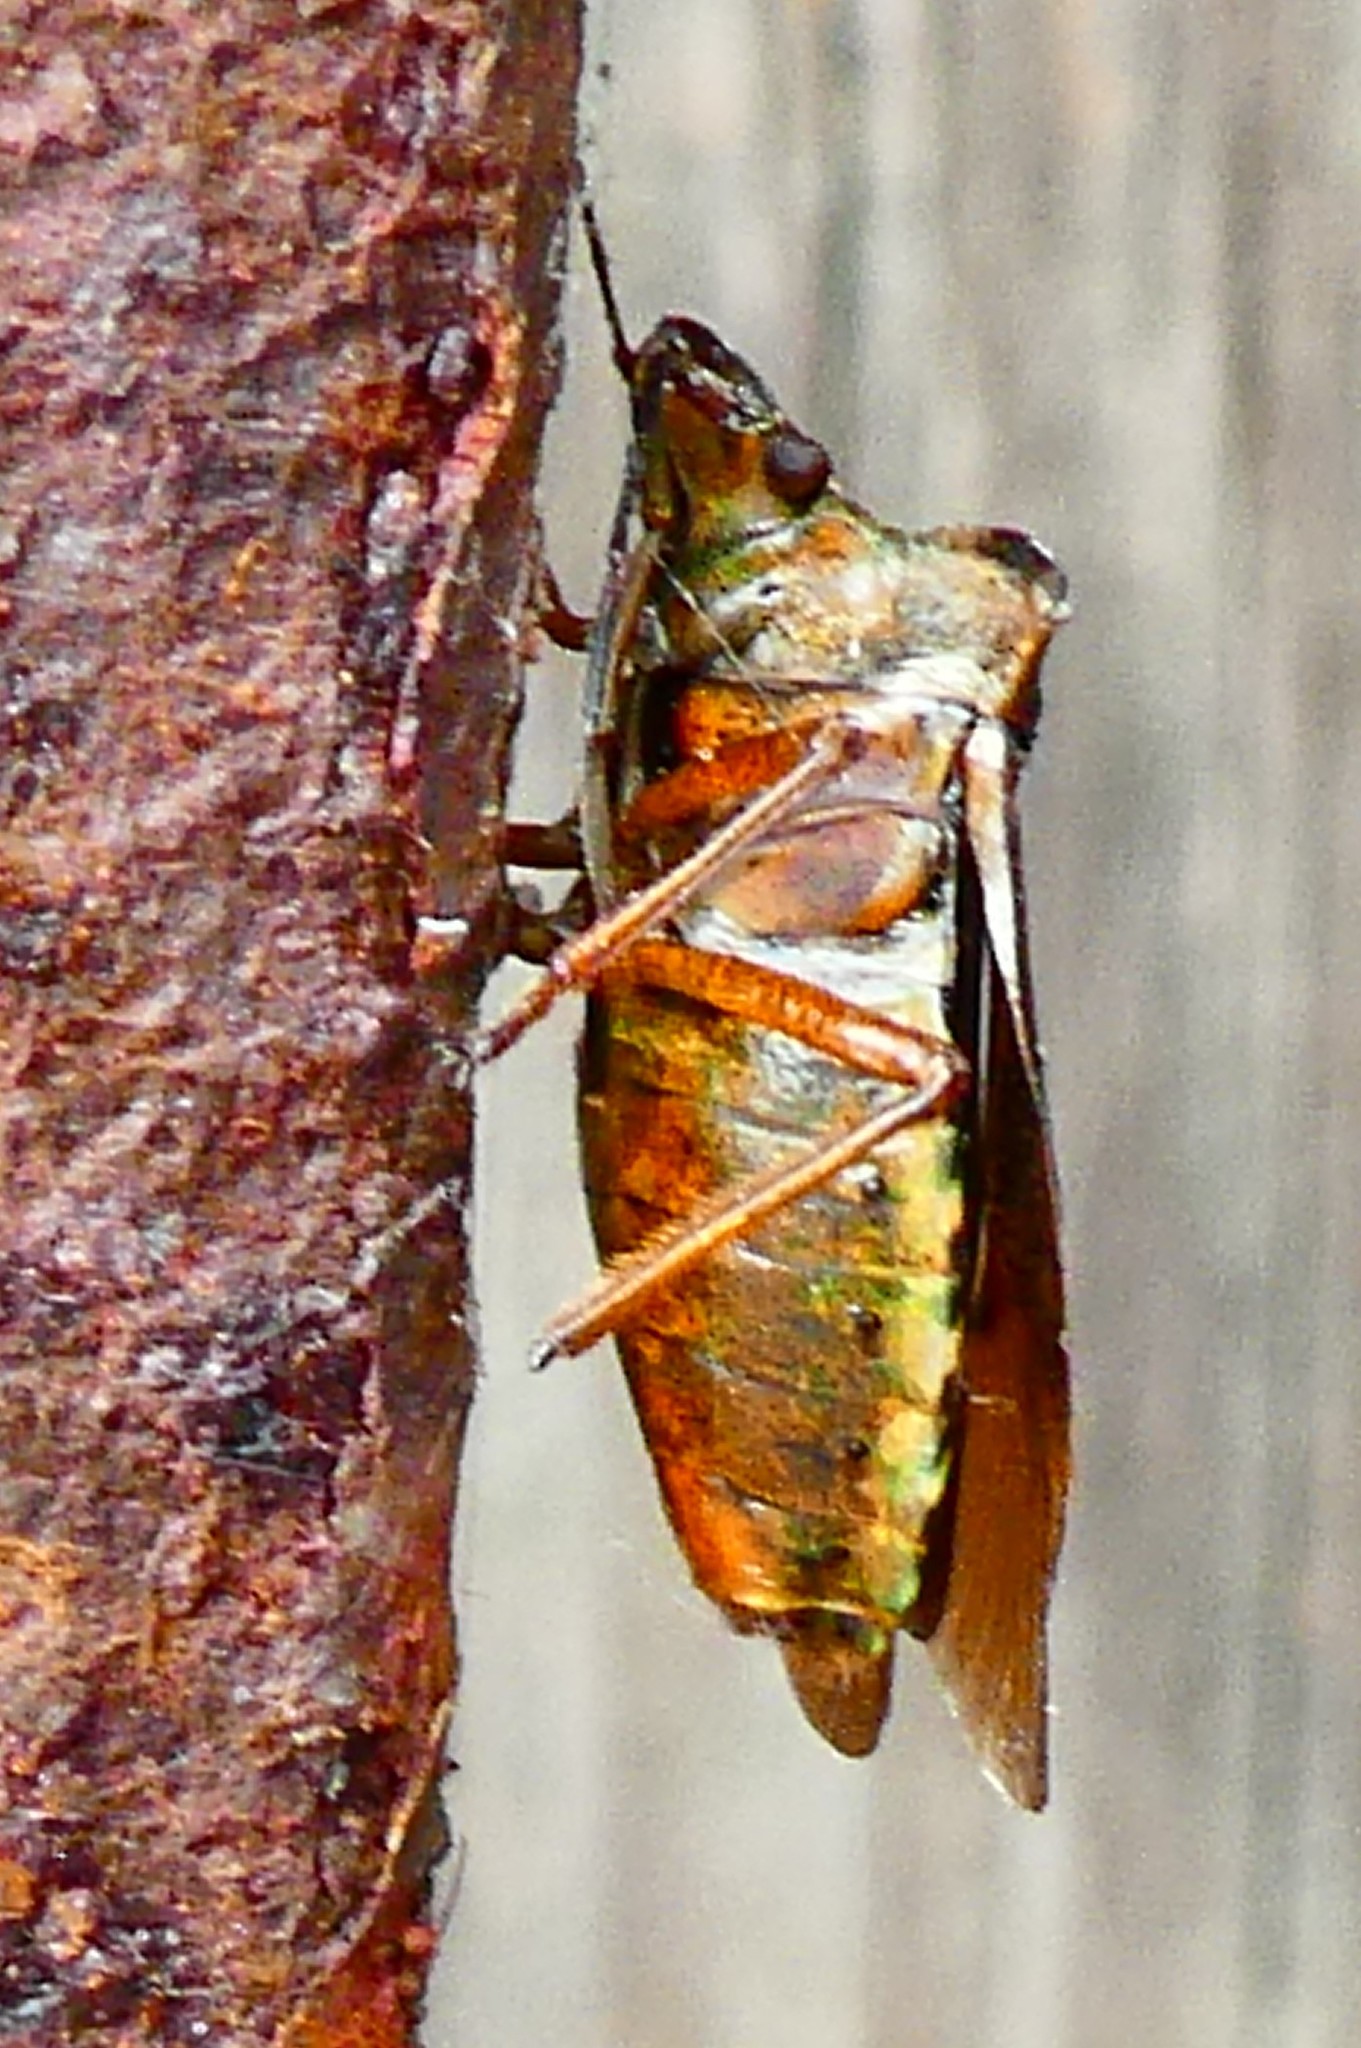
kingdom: Animalia
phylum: Arthropoda
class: Insecta
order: Hemiptera
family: Pentatomidae
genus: Pentatoma
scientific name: Pentatoma rufipes
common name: Forest bug
